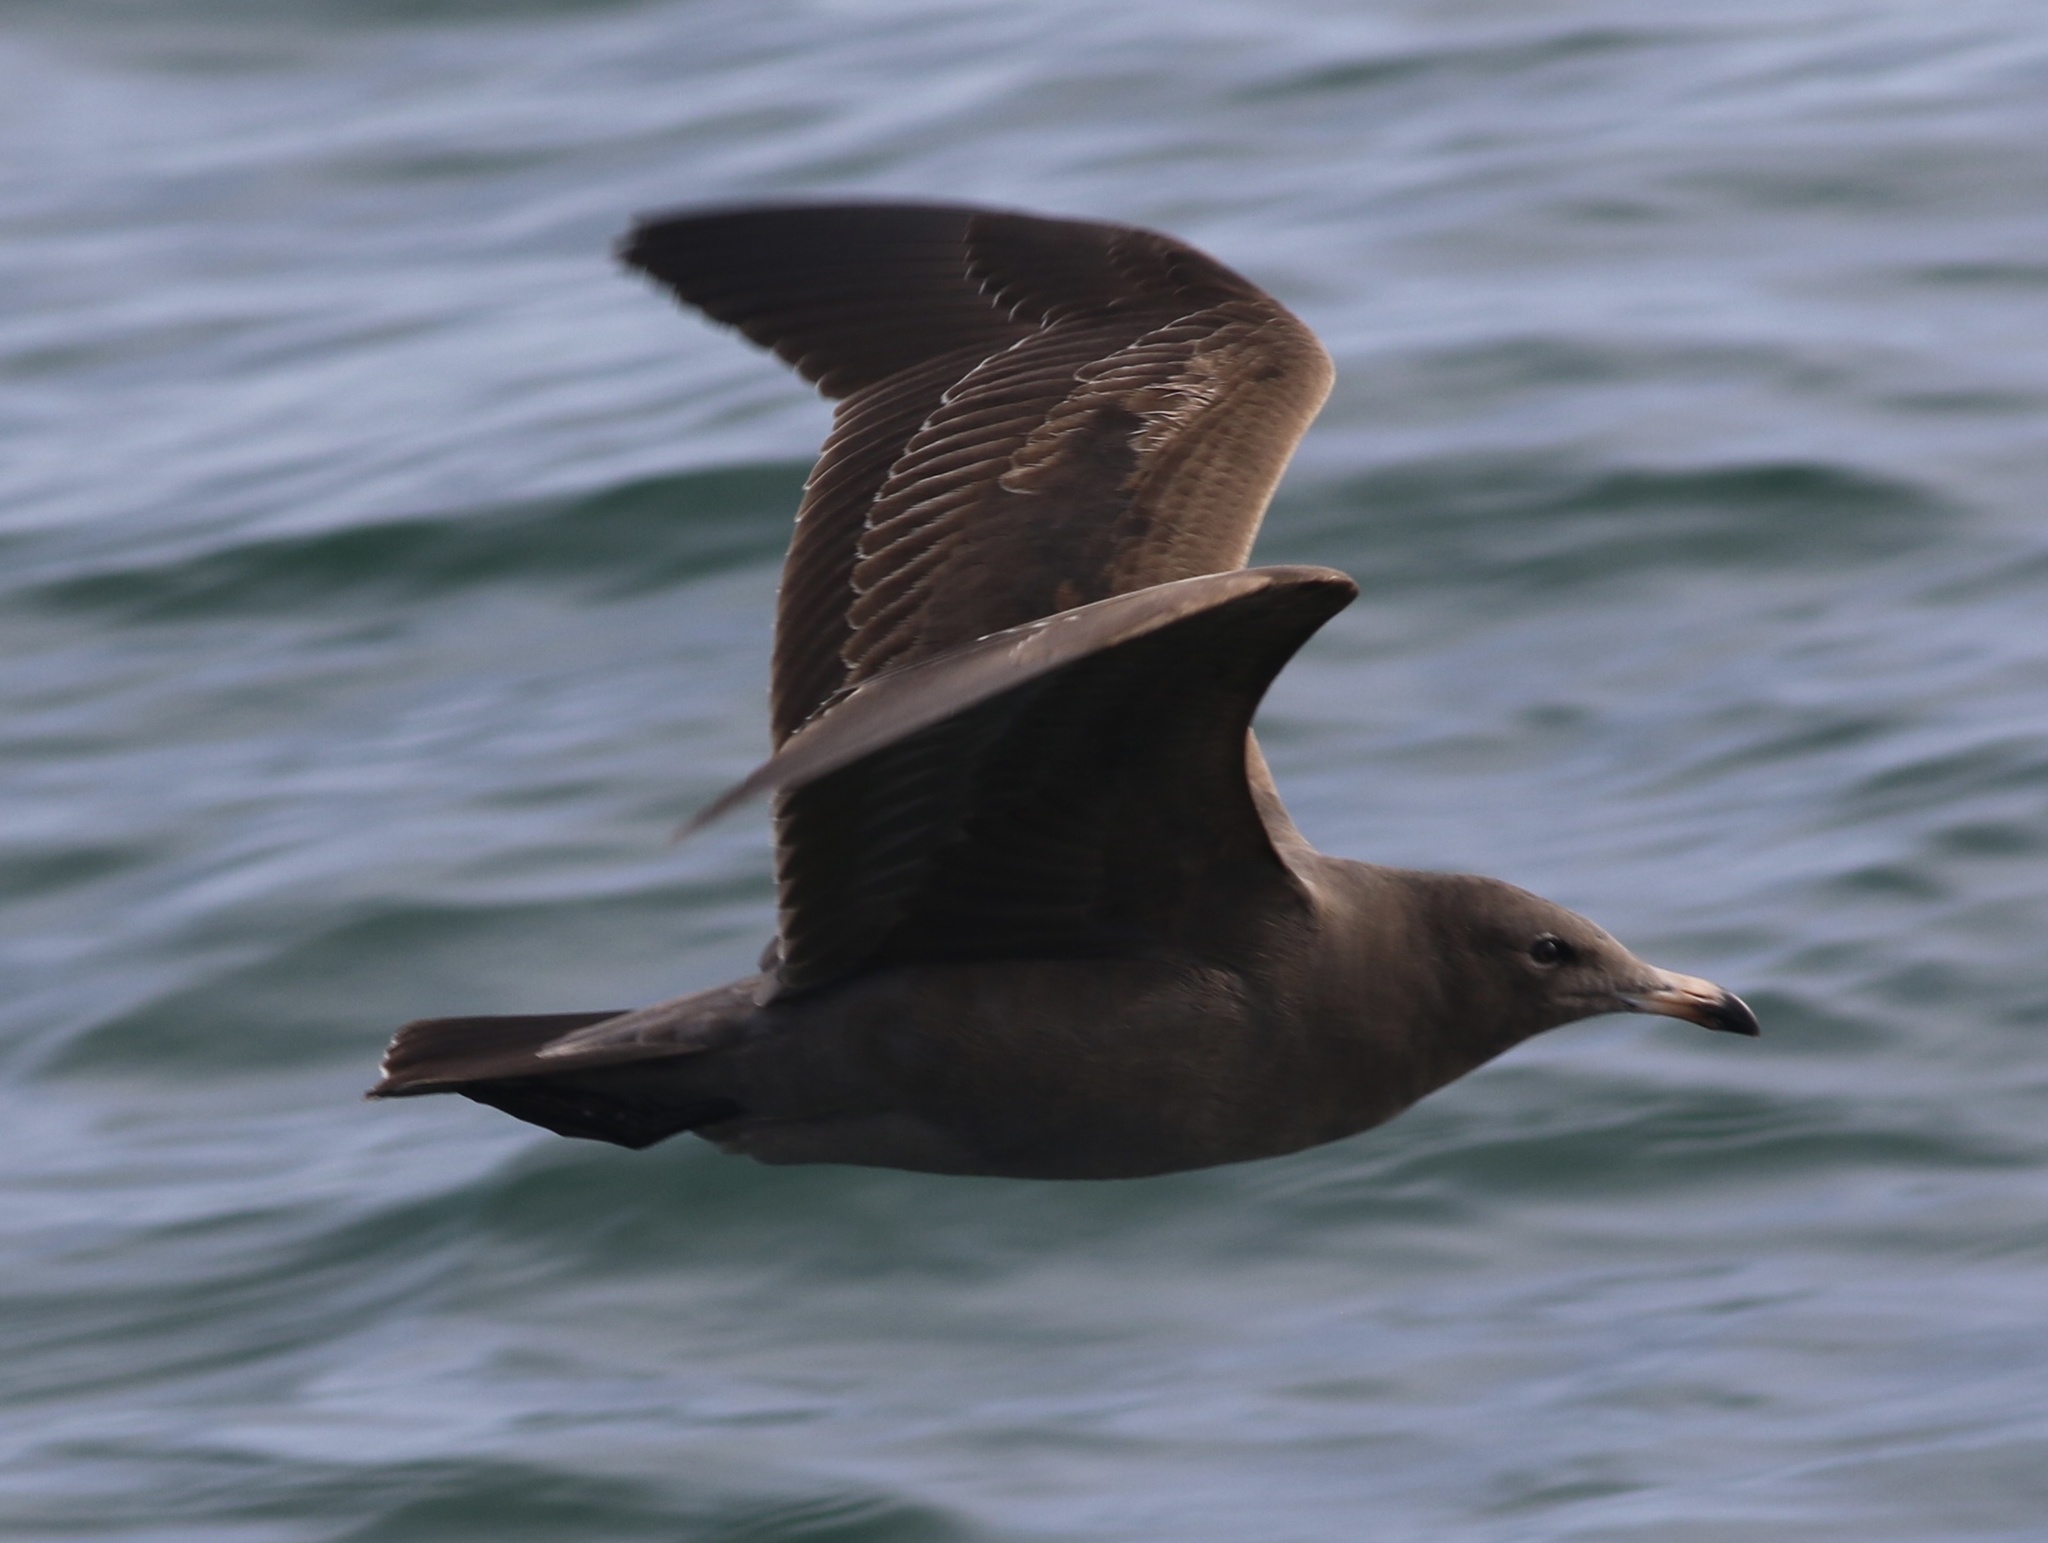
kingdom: Animalia
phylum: Chordata
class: Aves
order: Charadriiformes
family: Laridae
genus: Larus
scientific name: Larus heermanni
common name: Heermann's gull
